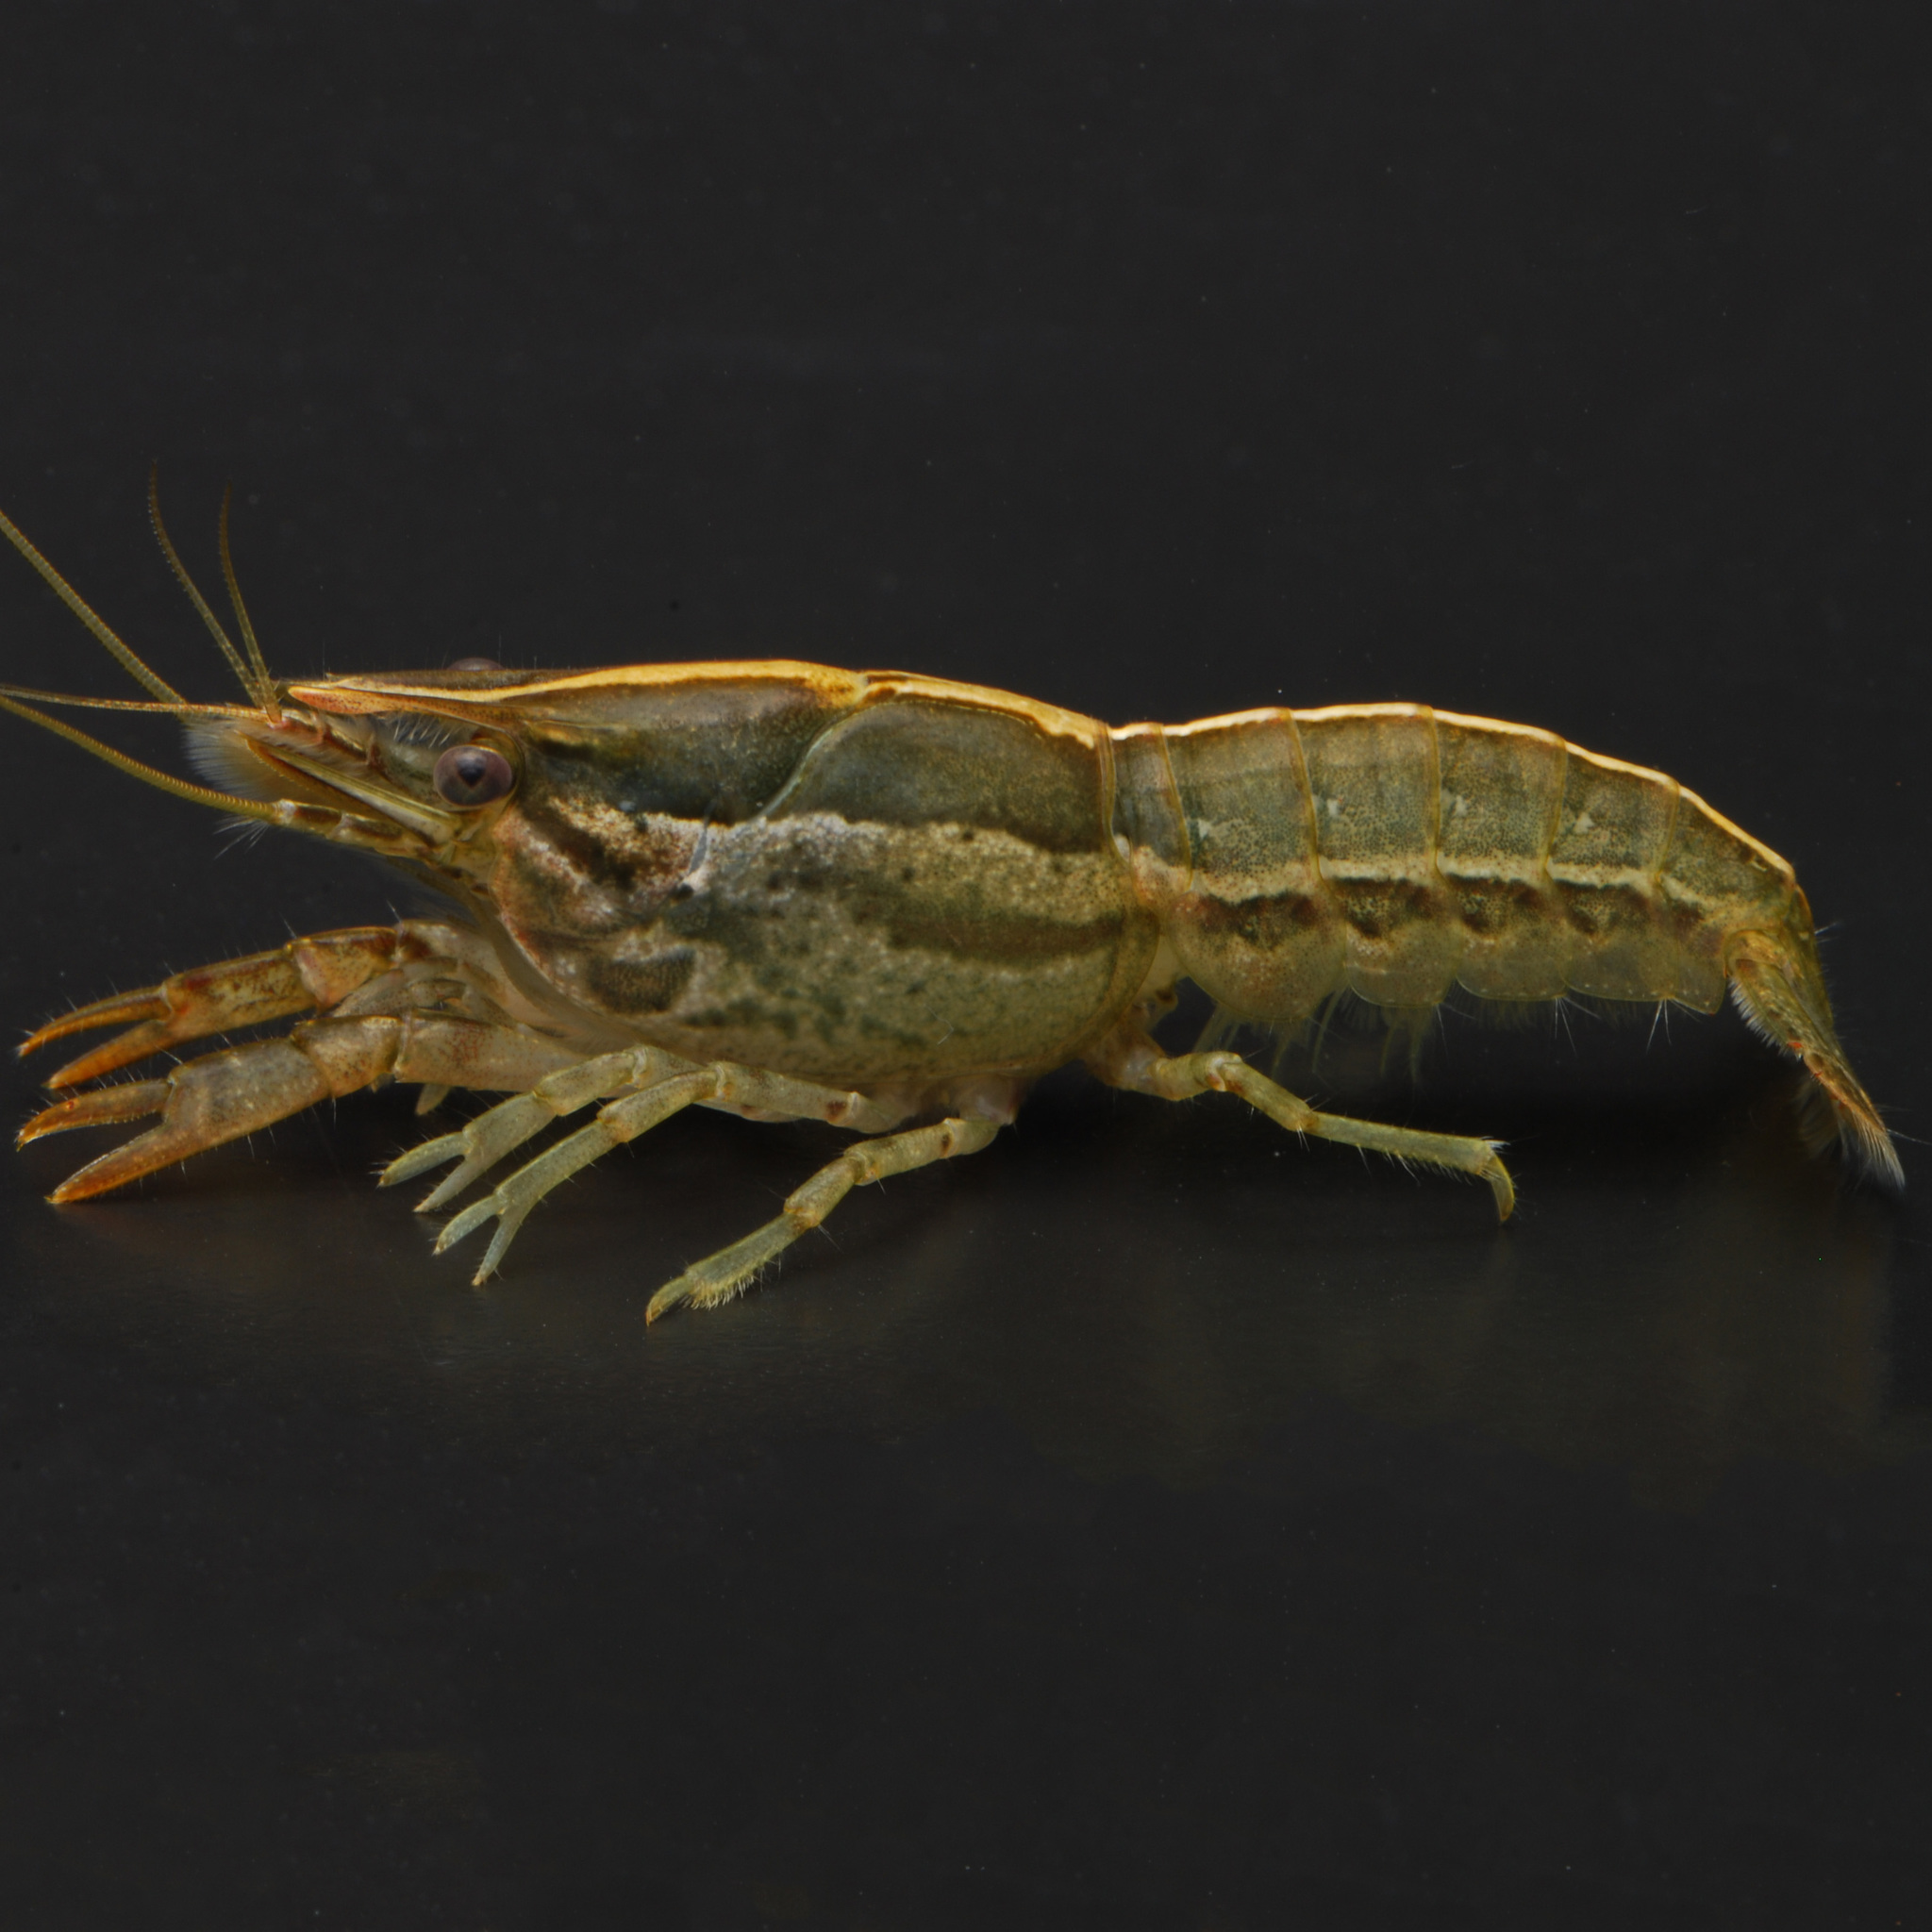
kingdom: Animalia
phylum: Arthropoda
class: Malacostraca
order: Decapoda
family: Cambaridae
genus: Procambarus
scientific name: Procambarus brazoriensis
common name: Brazoria crayfish
